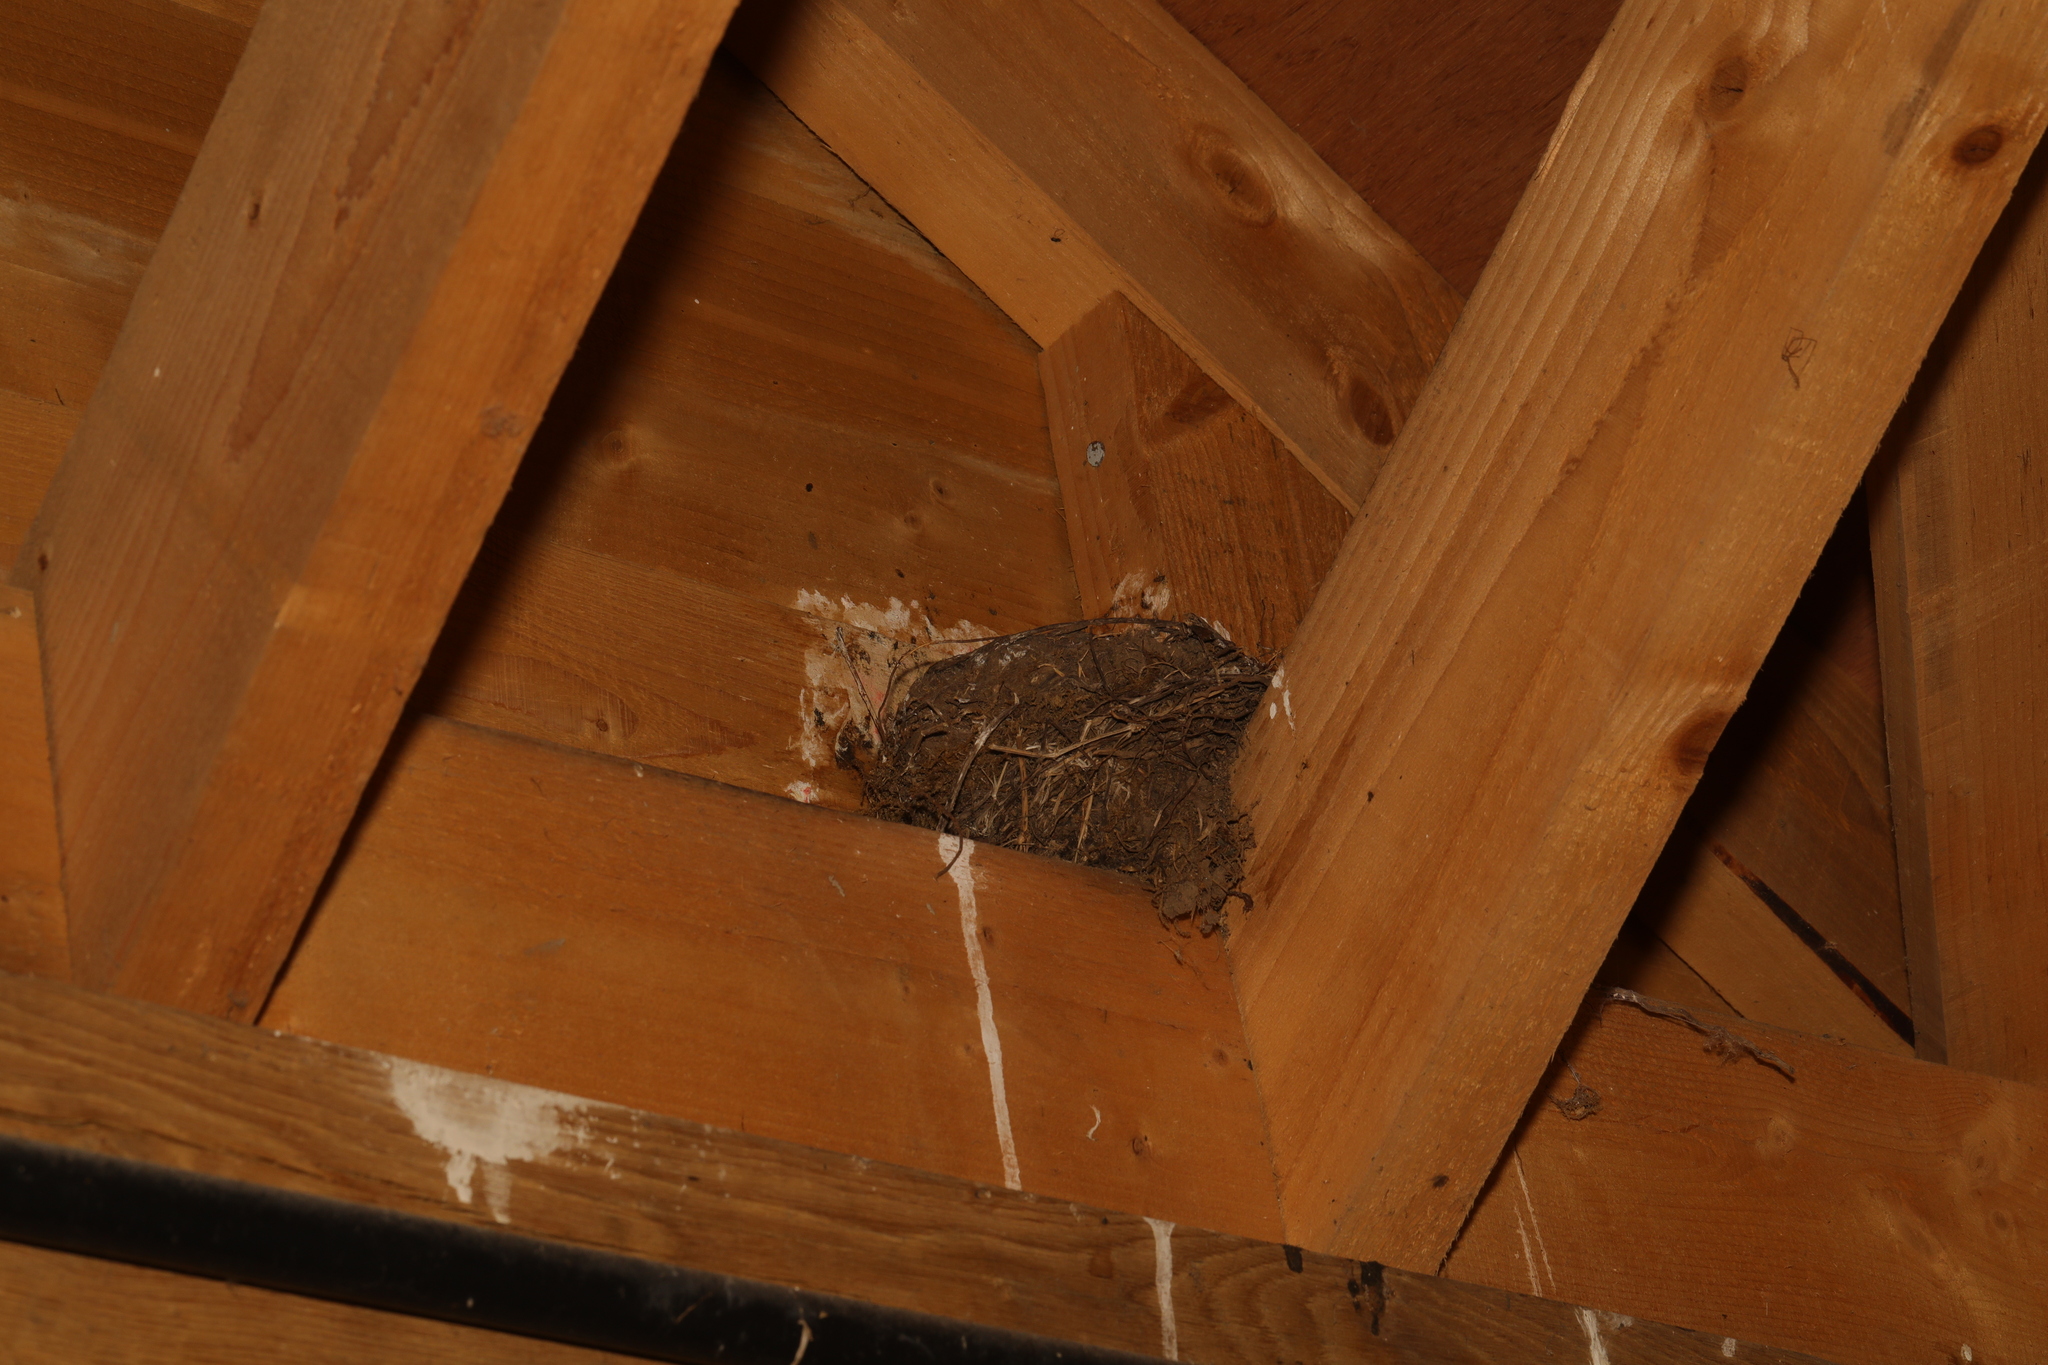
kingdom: Animalia
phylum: Chordata
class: Aves
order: Passeriformes
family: Hirundinidae
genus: Hirundo
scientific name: Hirundo rustica
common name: Barn swallow
